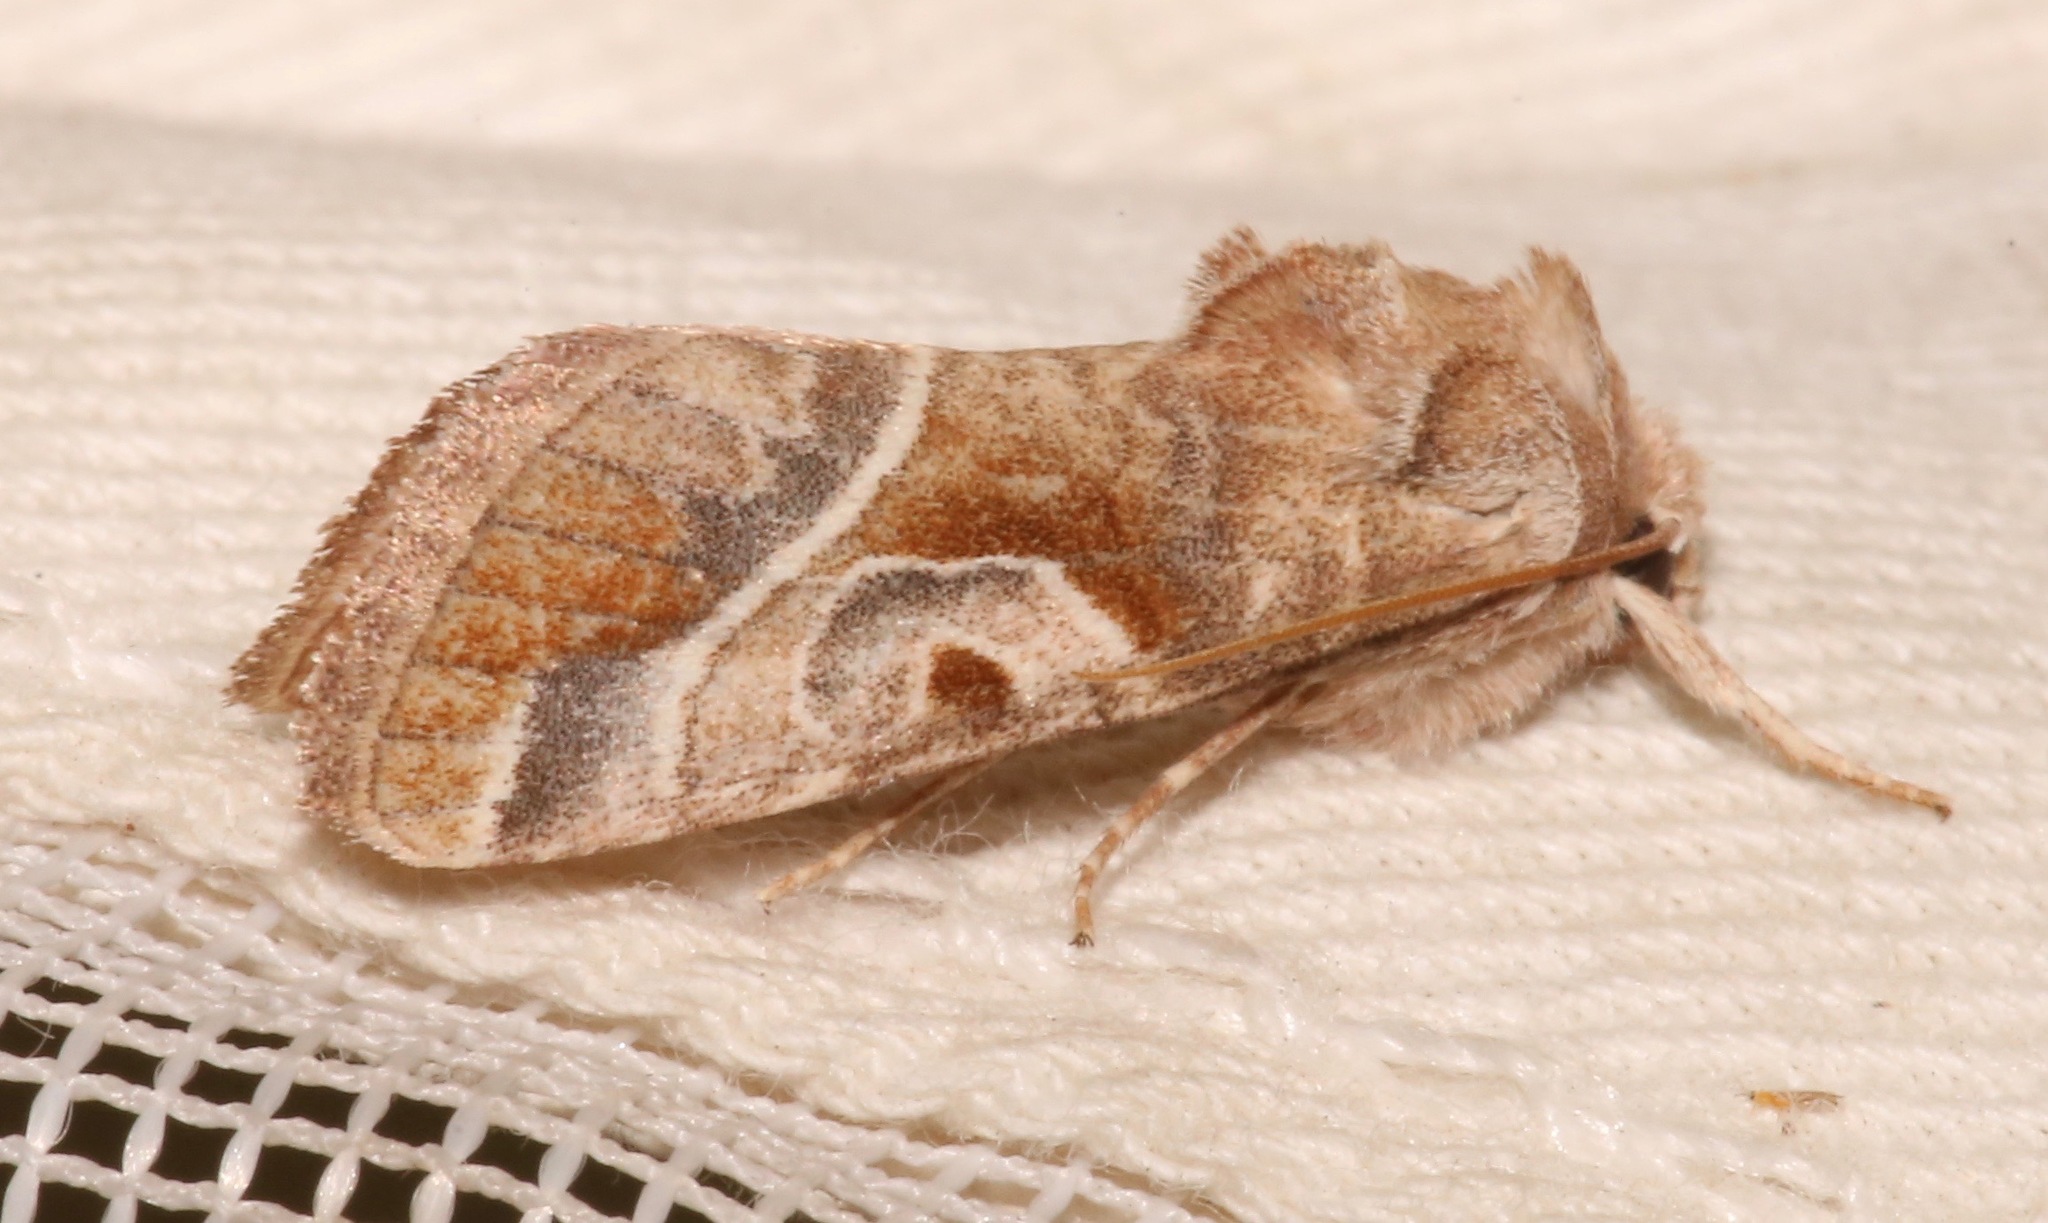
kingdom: Animalia
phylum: Arthropoda
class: Insecta
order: Lepidoptera
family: Noctuidae
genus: Hexorthodes
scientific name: Hexorthodes accurata
